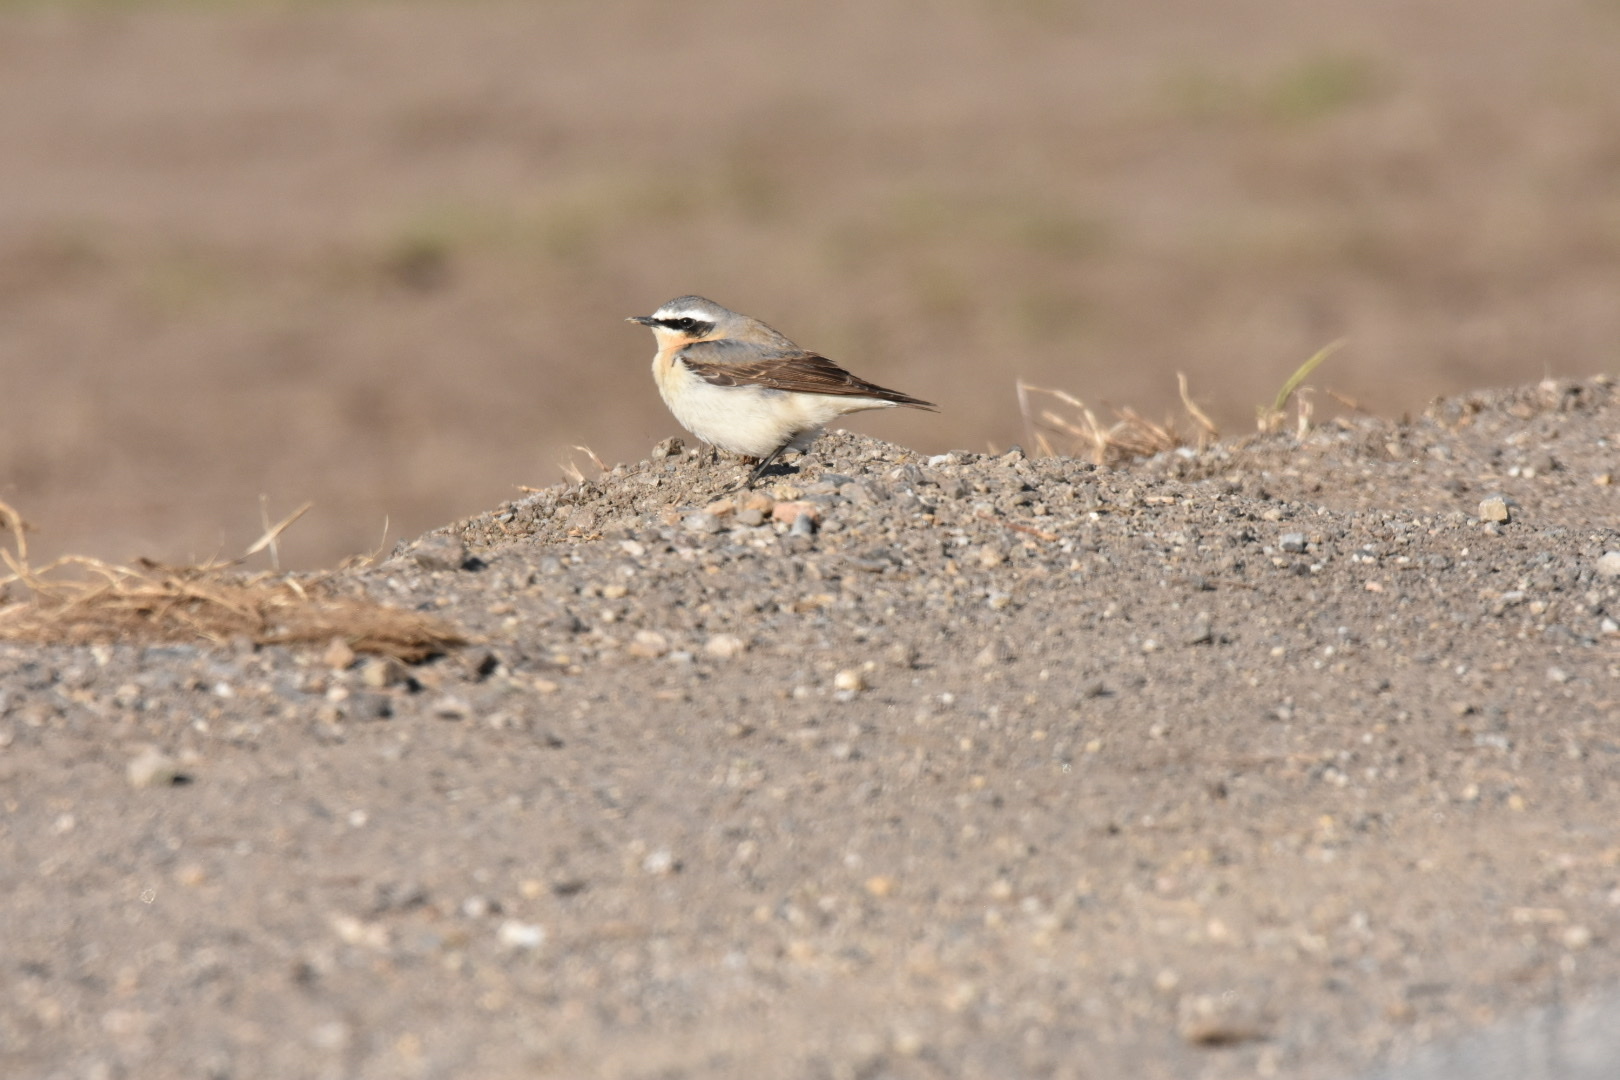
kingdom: Animalia
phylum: Chordata
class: Aves
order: Passeriformes
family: Muscicapidae
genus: Oenanthe
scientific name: Oenanthe oenanthe
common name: Northern wheatear
